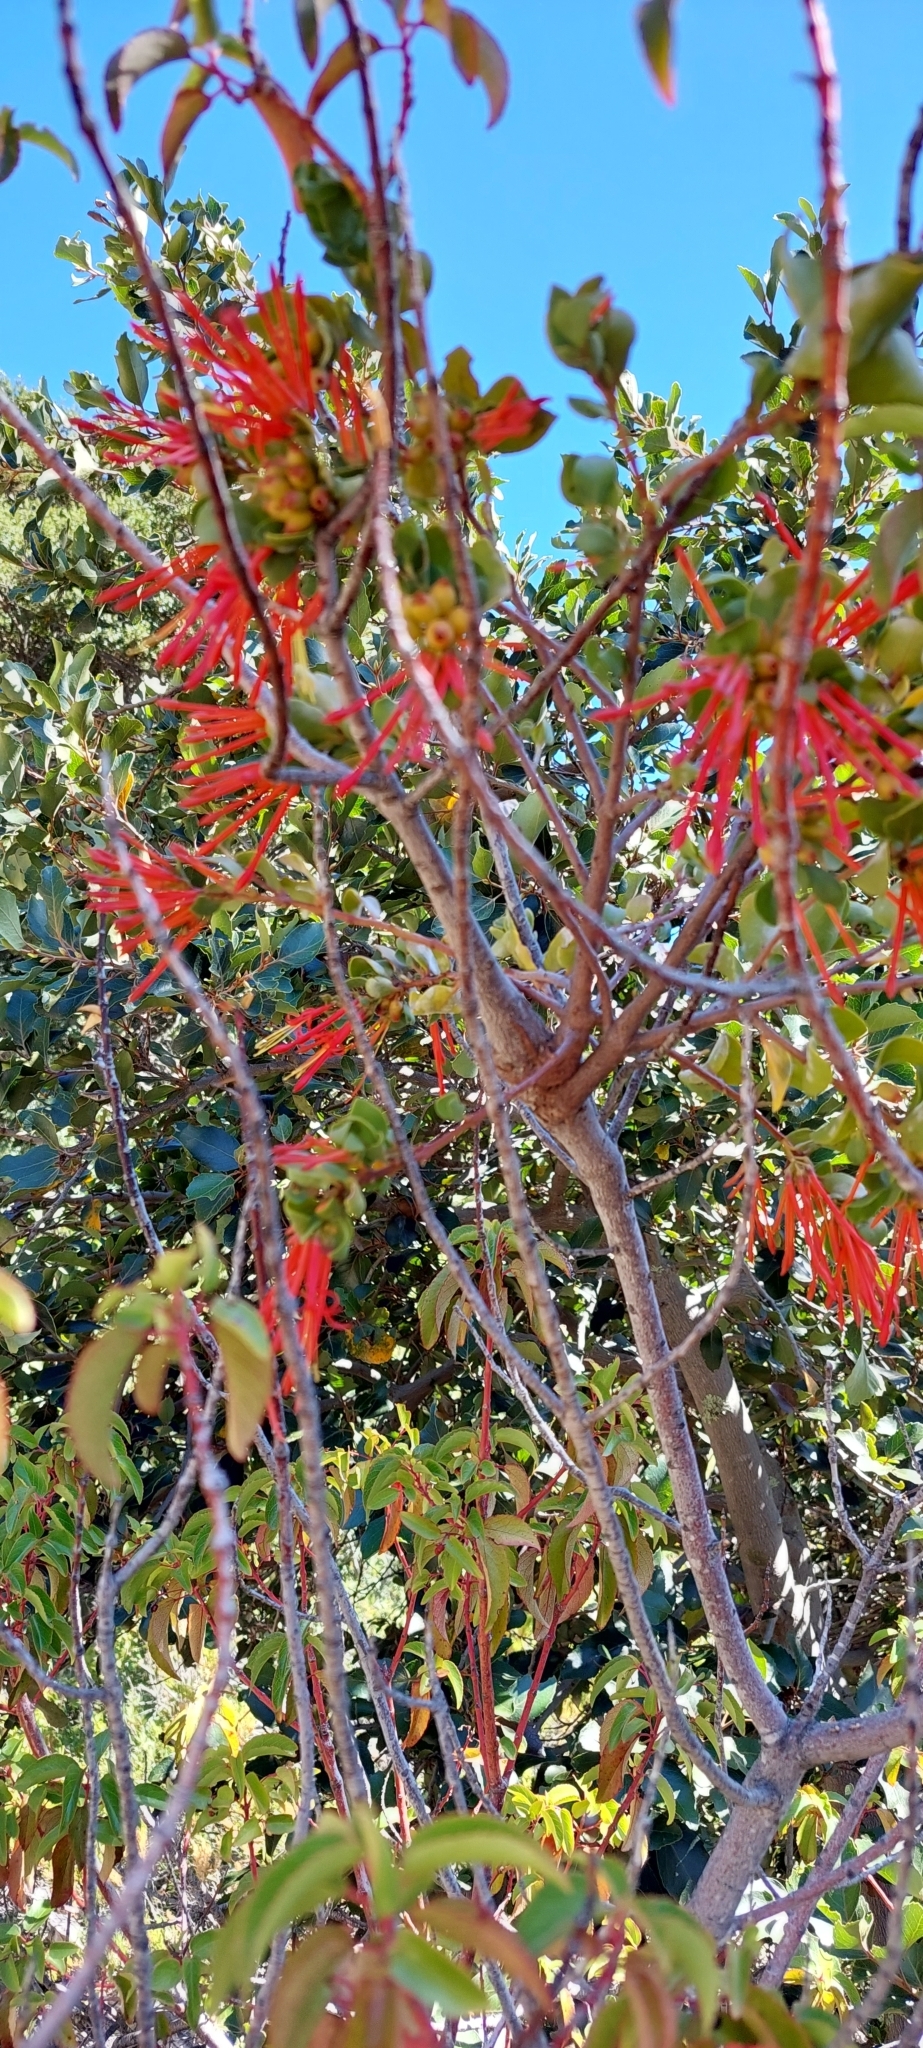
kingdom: Plantae
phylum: Tracheophyta
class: Magnoliopsida
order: Santalales
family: Loranthaceae
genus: Tristerix
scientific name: Tristerix corymbosus
